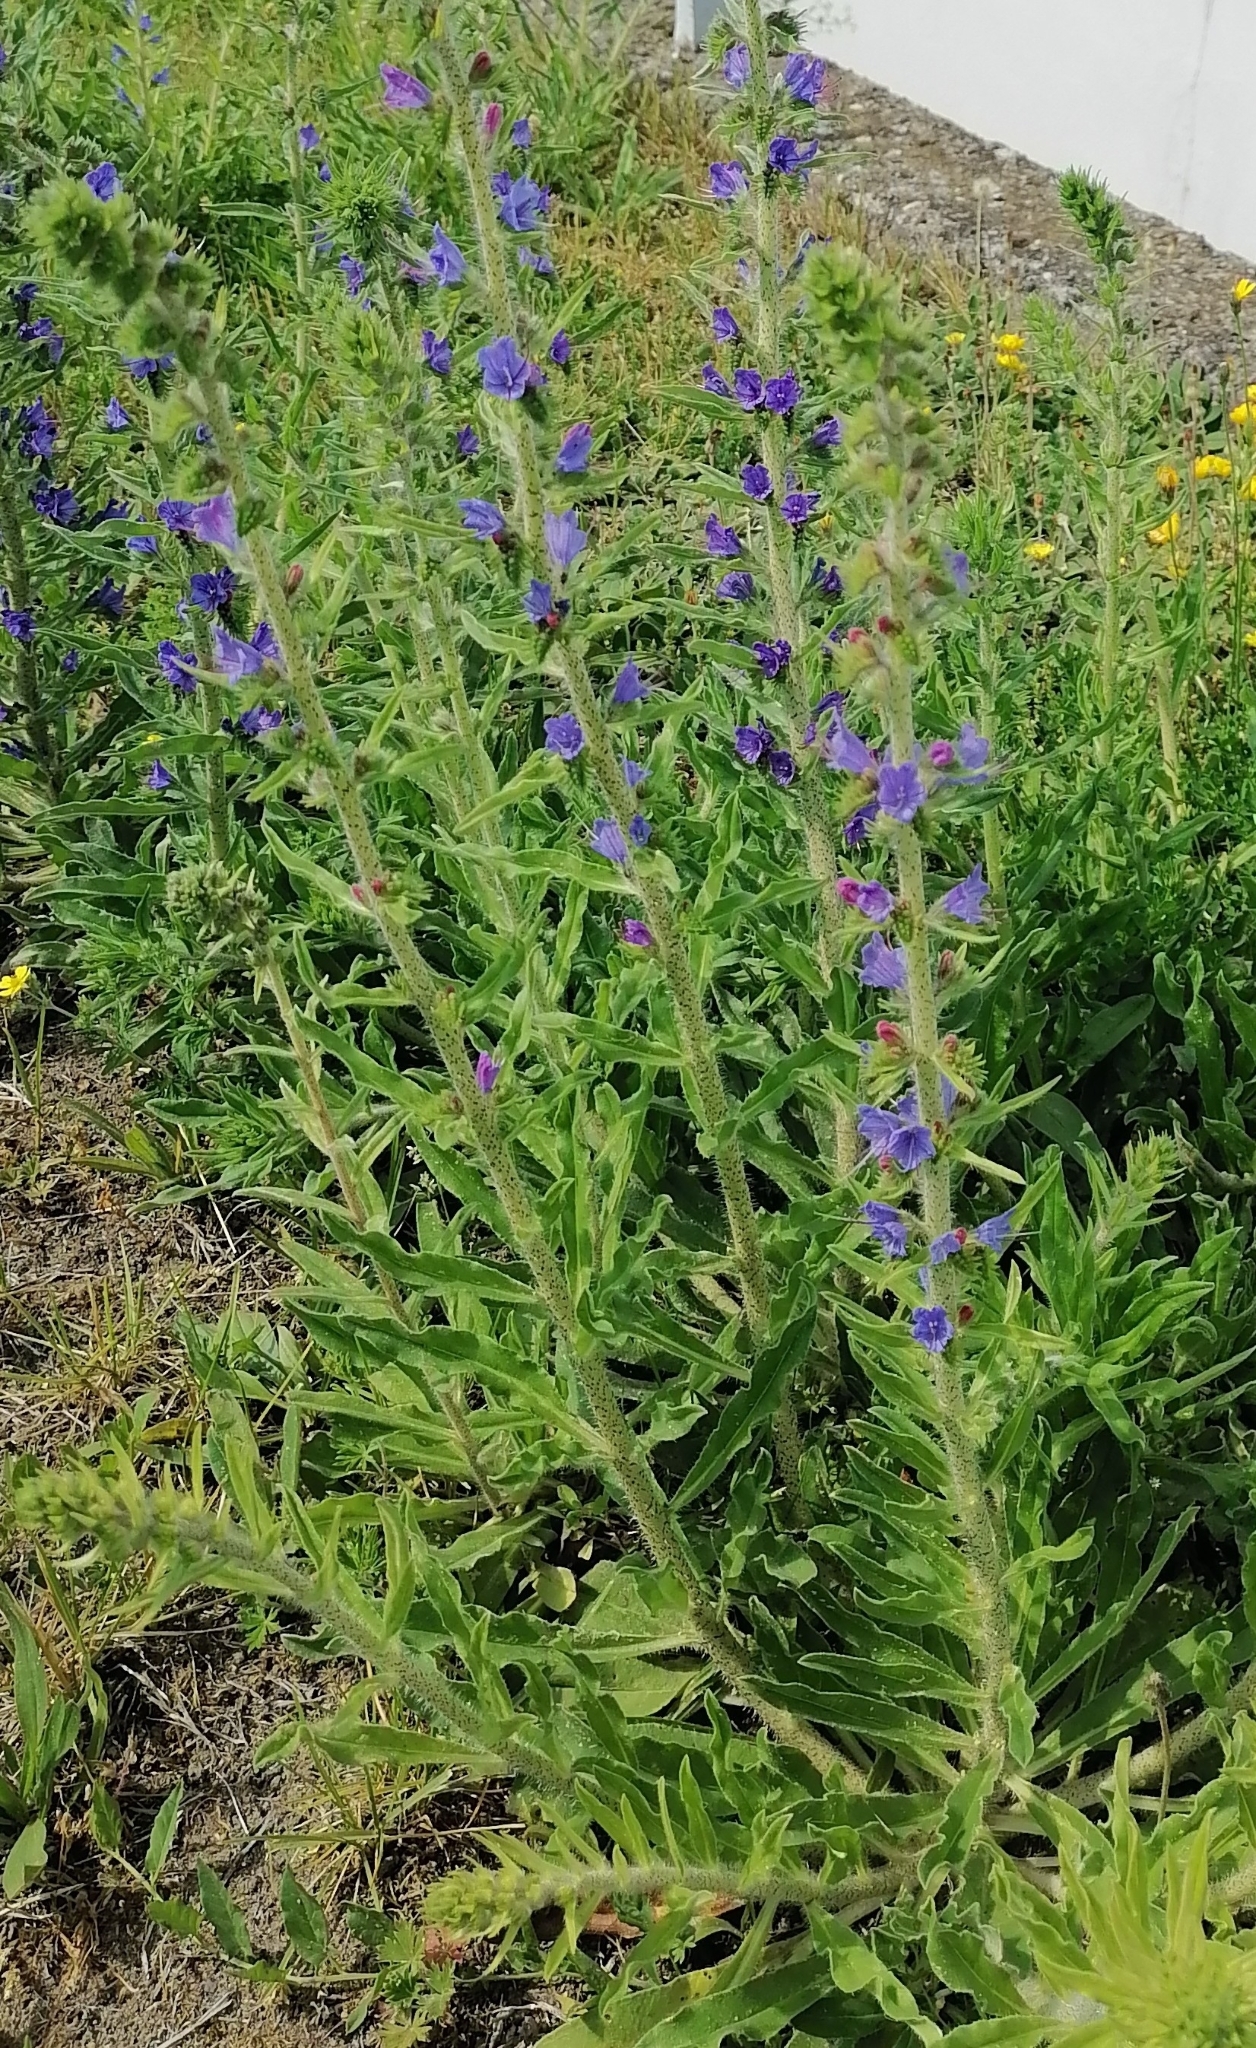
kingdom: Plantae
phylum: Tracheophyta
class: Magnoliopsida
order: Boraginales
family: Boraginaceae
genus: Echium
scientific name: Echium vulgare
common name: Common viper's bugloss
